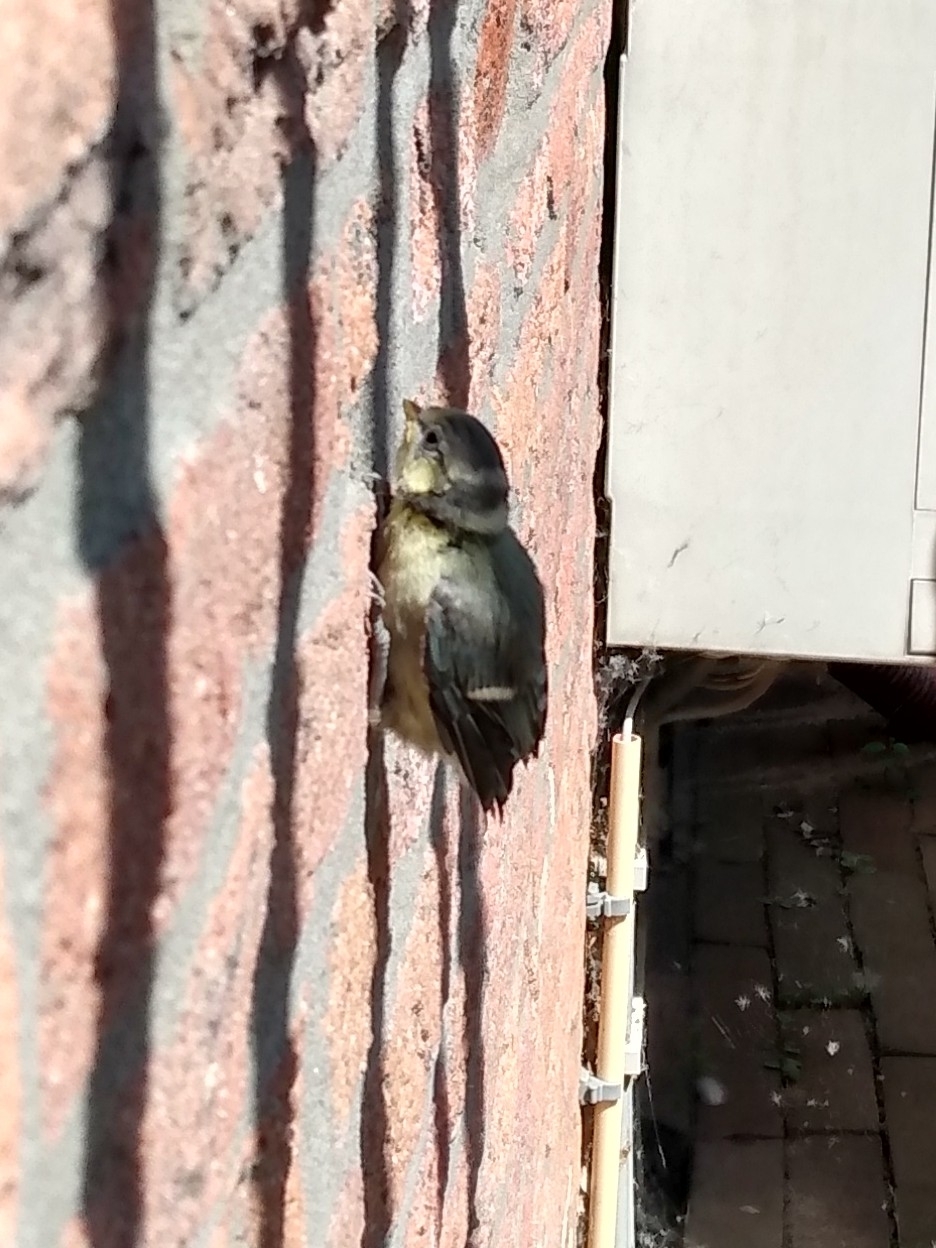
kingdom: Animalia
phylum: Chordata
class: Aves
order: Passeriformes
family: Paridae
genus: Cyanistes
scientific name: Cyanistes caeruleus
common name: Eurasian blue tit
